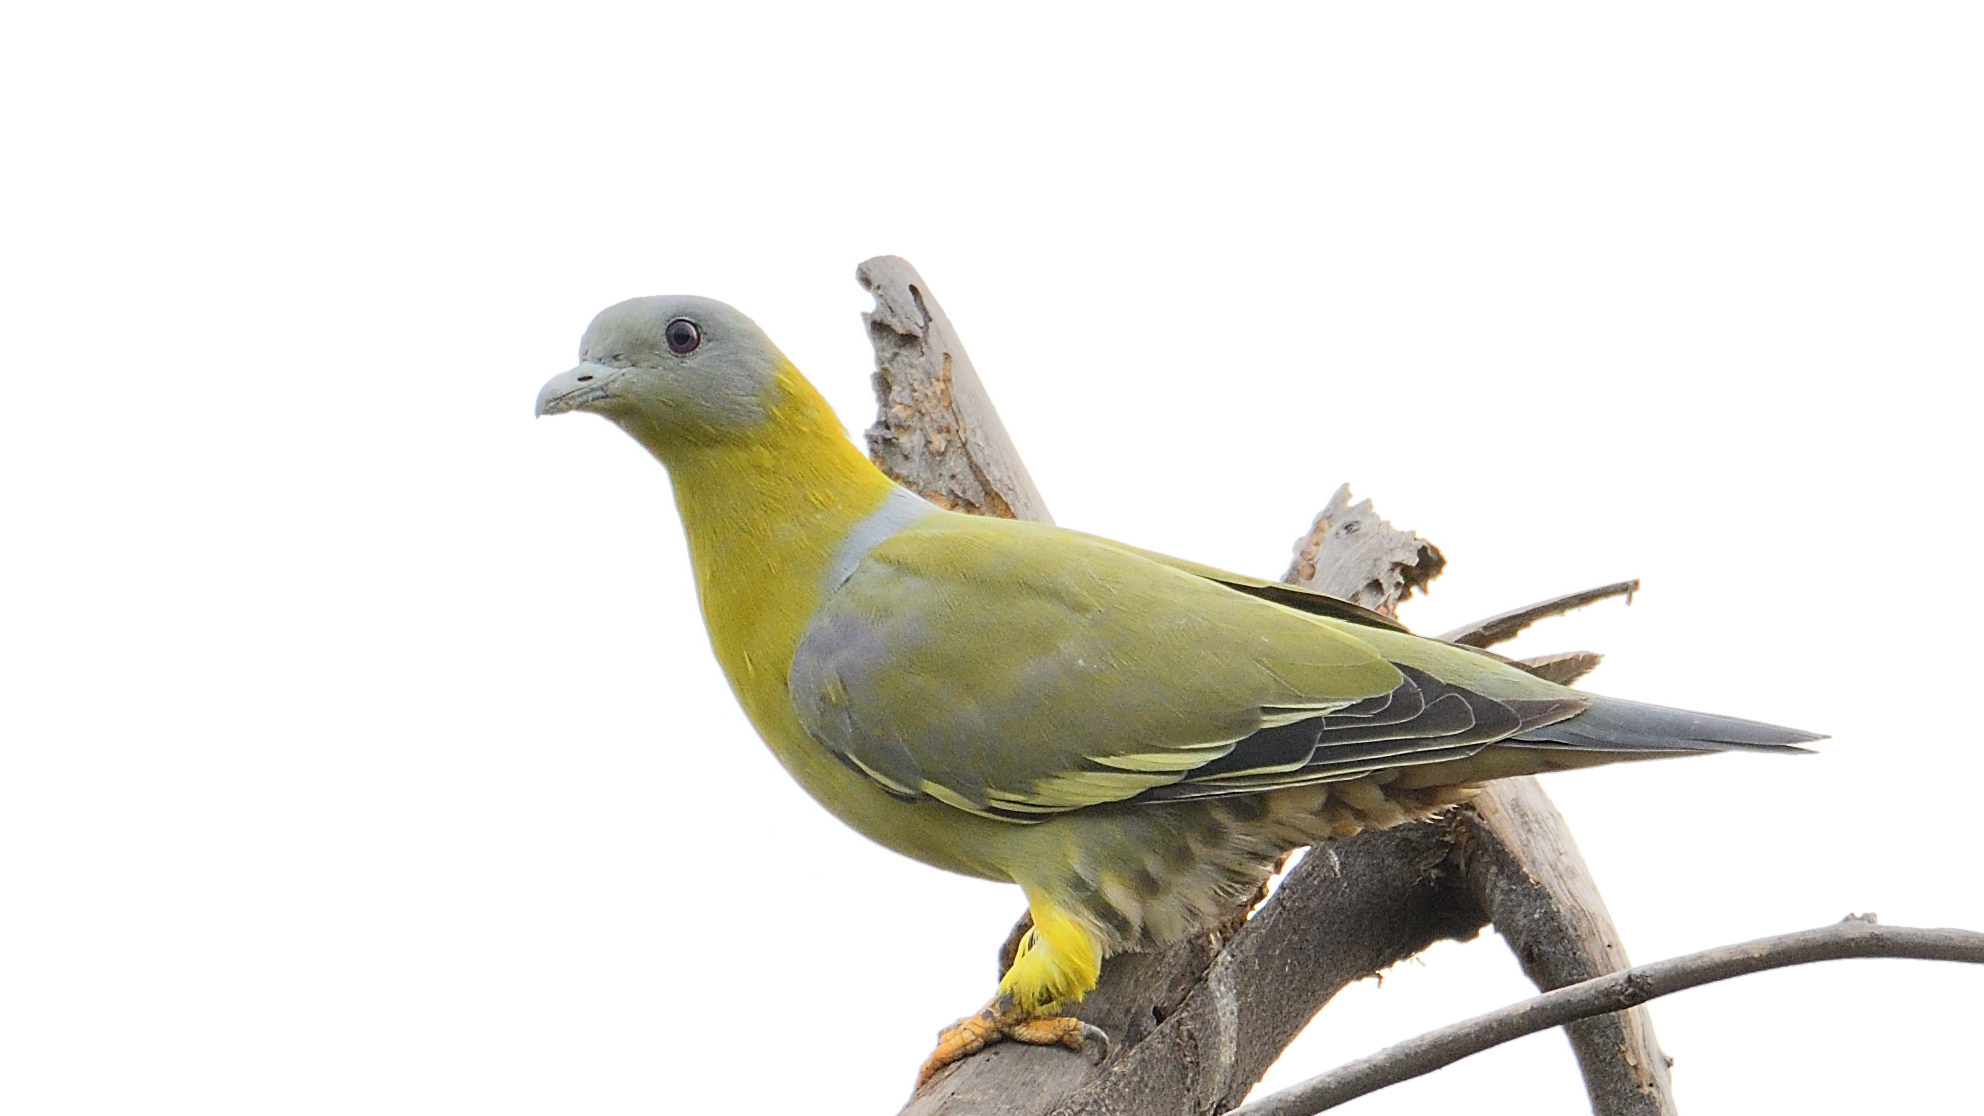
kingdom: Animalia
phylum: Chordata
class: Aves
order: Columbiformes
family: Columbidae
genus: Treron
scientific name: Treron phoenicopterus
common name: Yellow-footed green pigeon
